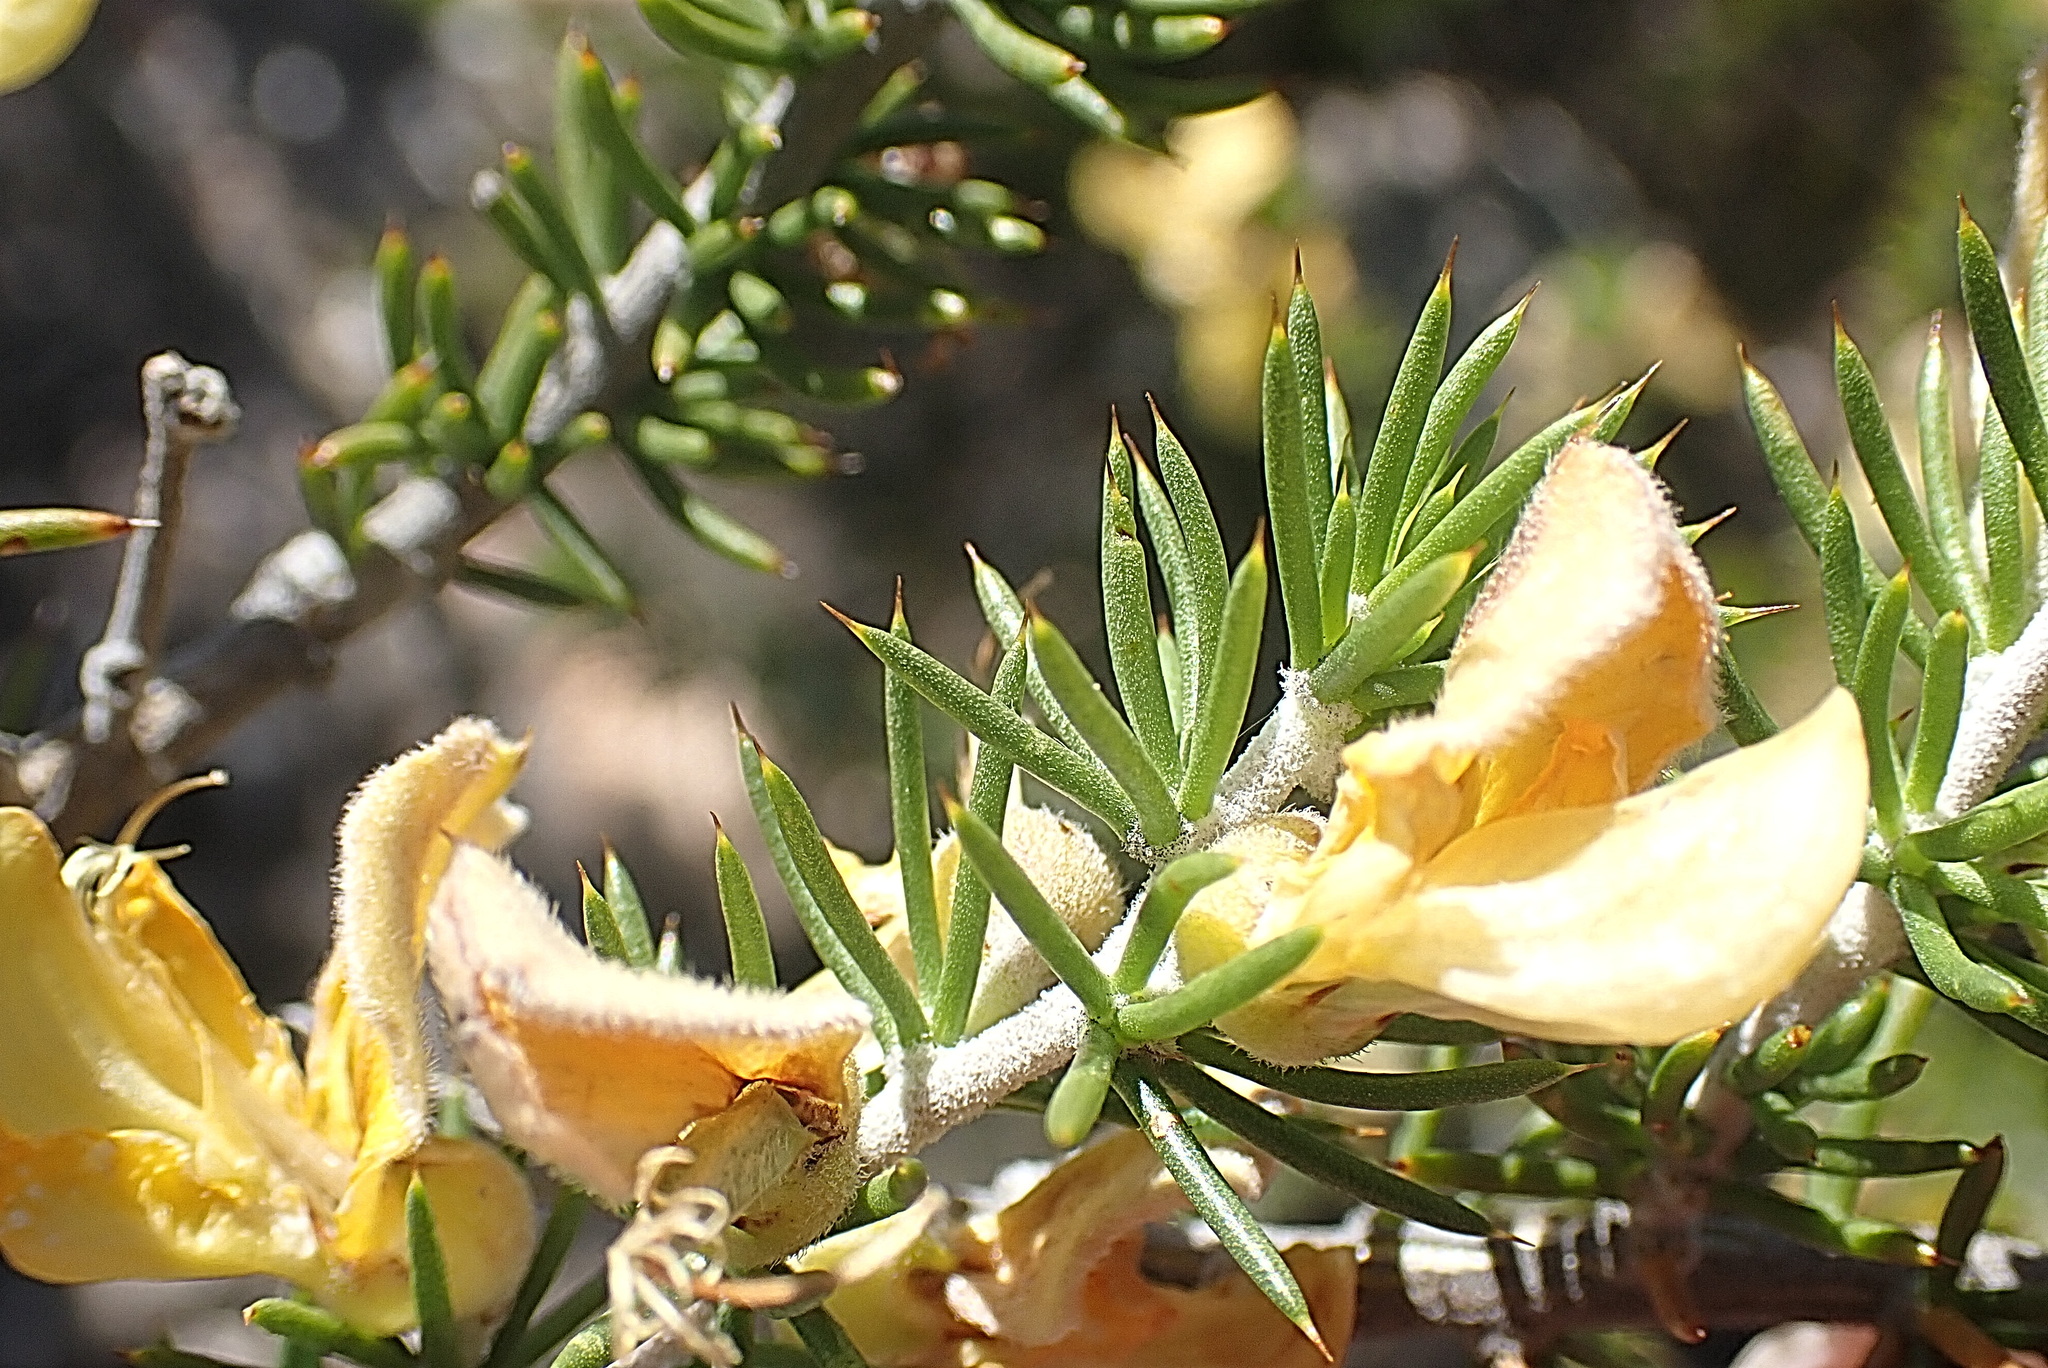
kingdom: Plantae
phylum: Tracheophyta
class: Magnoliopsida
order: Fabales
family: Fabaceae
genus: Aspalathus
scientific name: Aspalathus hirta
